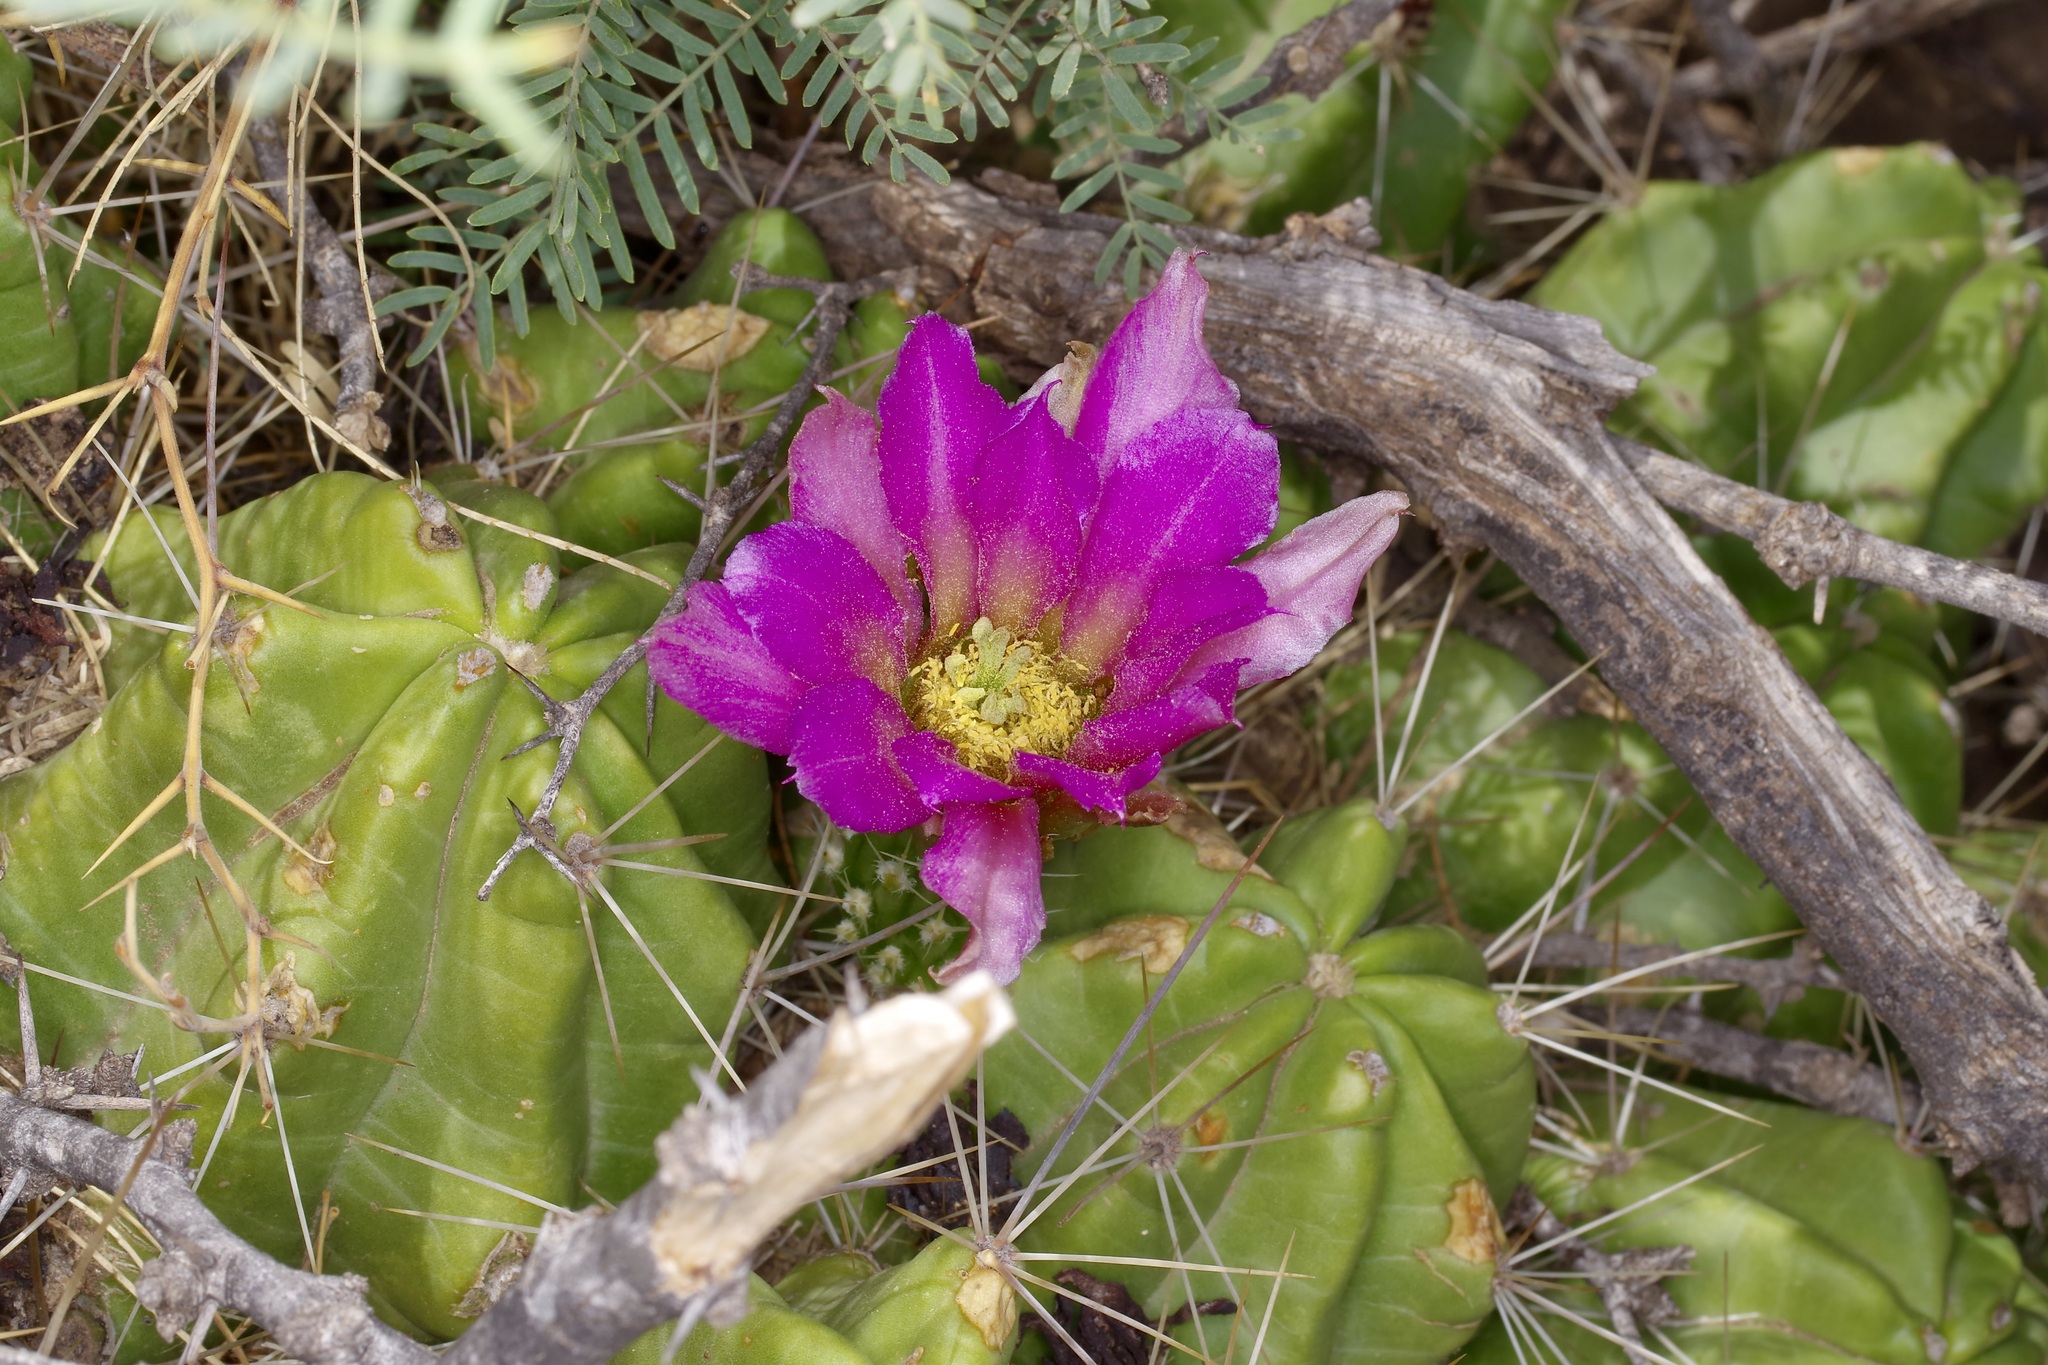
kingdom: Plantae
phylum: Tracheophyta
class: Magnoliopsida
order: Caryophyllales
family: Cactaceae
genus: Echinocereus
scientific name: Echinocereus enneacanthus
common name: Pitaya
